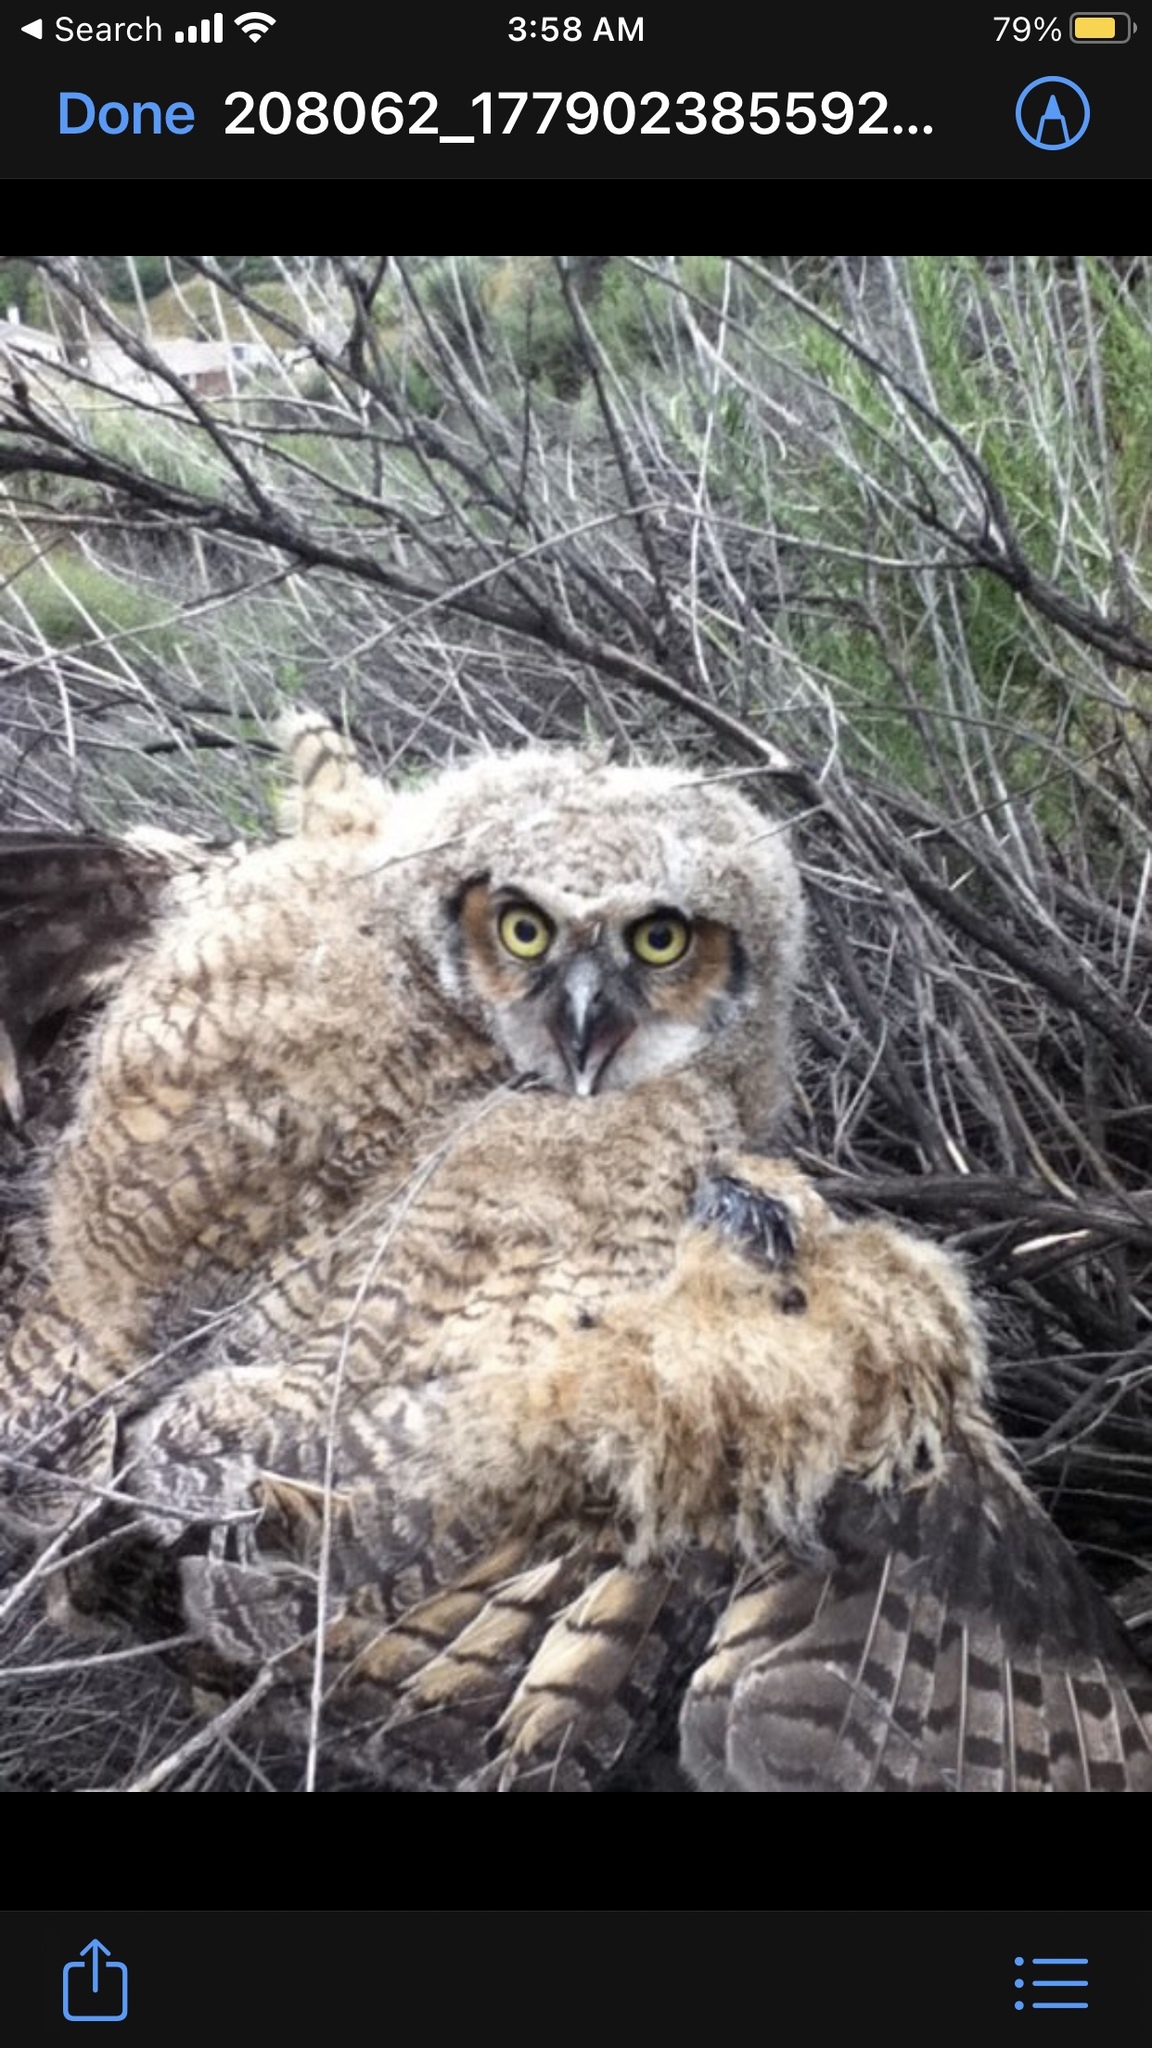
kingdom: Animalia
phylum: Chordata
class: Aves
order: Strigiformes
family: Strigidae
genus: Bubo
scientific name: Bubo virginianus
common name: Great horned owl
